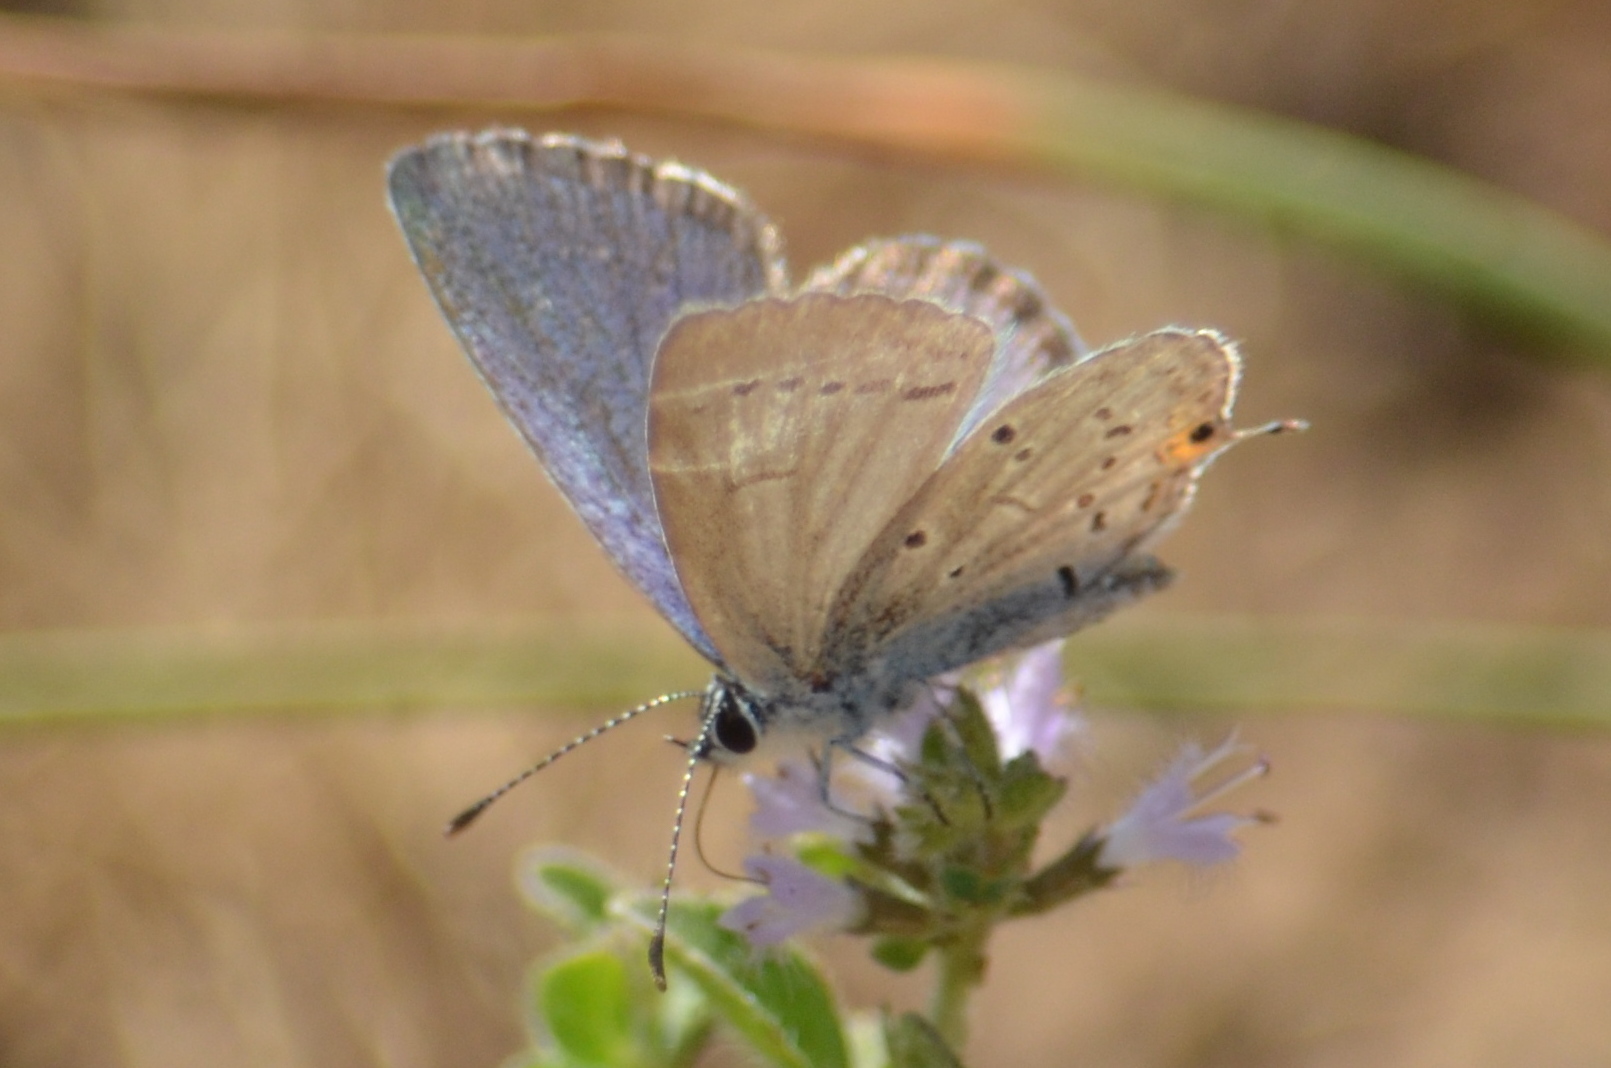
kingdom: Animalia
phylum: Arthropoda
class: Insecta
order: Lepidoptera
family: Lycaenidae
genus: Elkalyce
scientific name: Elkalyce comyntas
